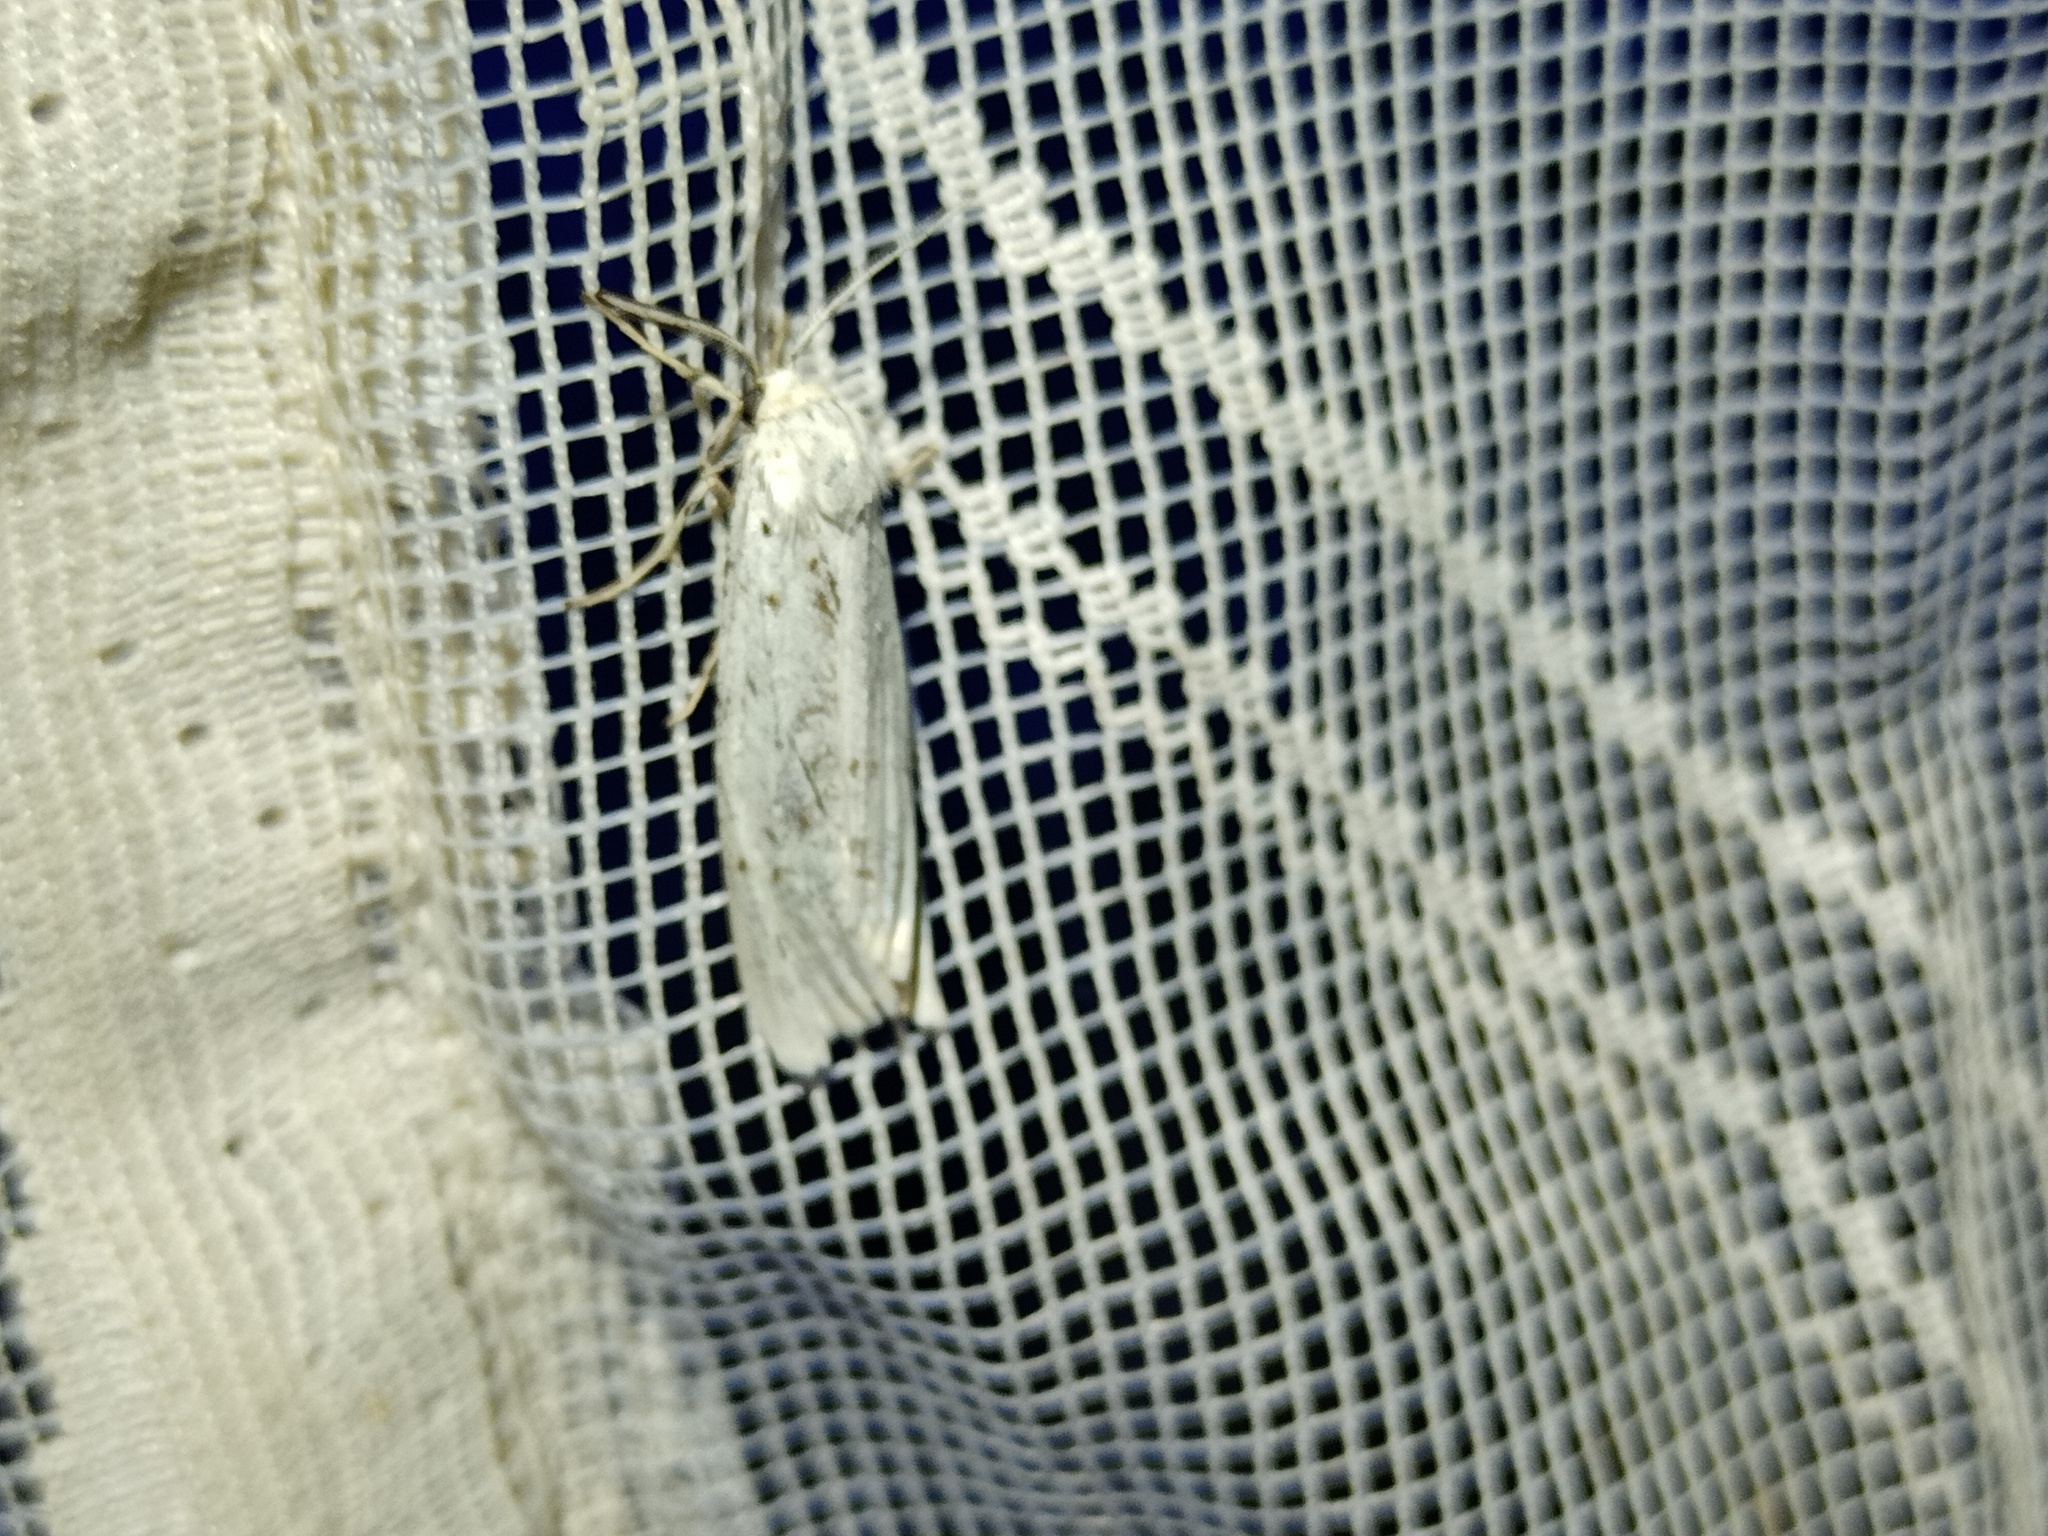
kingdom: Animalia
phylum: Arthropoda
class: Insecta
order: Lepidoptera
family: Erebidae
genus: Coscinia
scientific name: Coscinia cribraria
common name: Speckled footman
